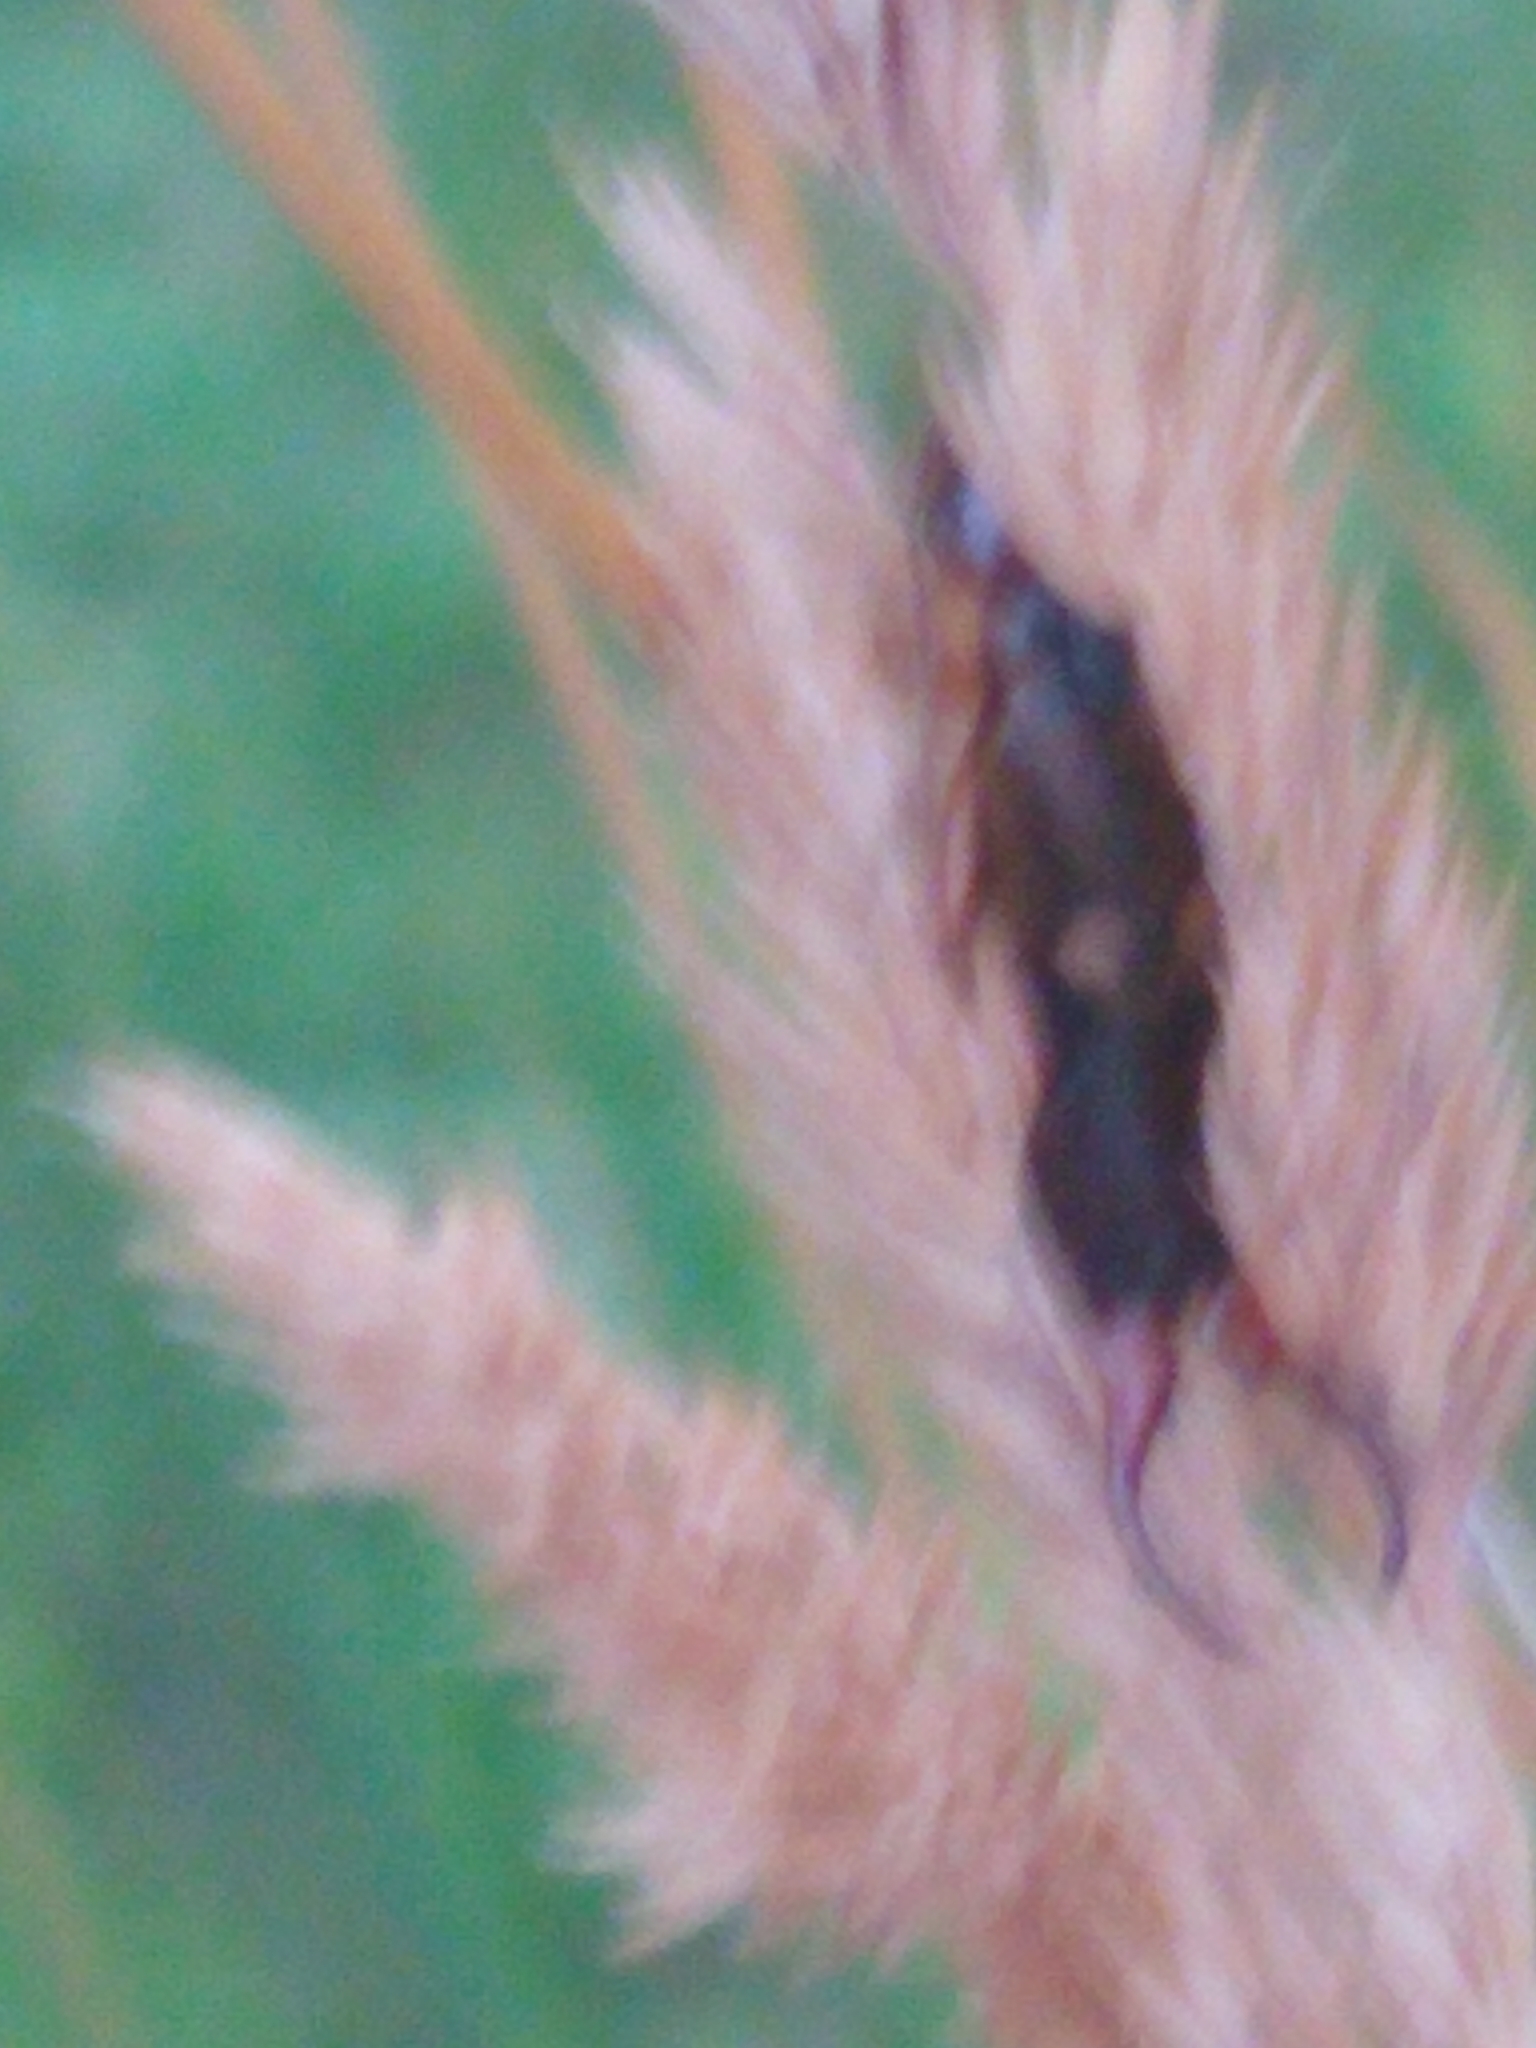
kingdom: Animalia
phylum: Arthropoda
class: Insecta
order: Dermaptera
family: Forficulidae
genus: Forficula
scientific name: Forficula
